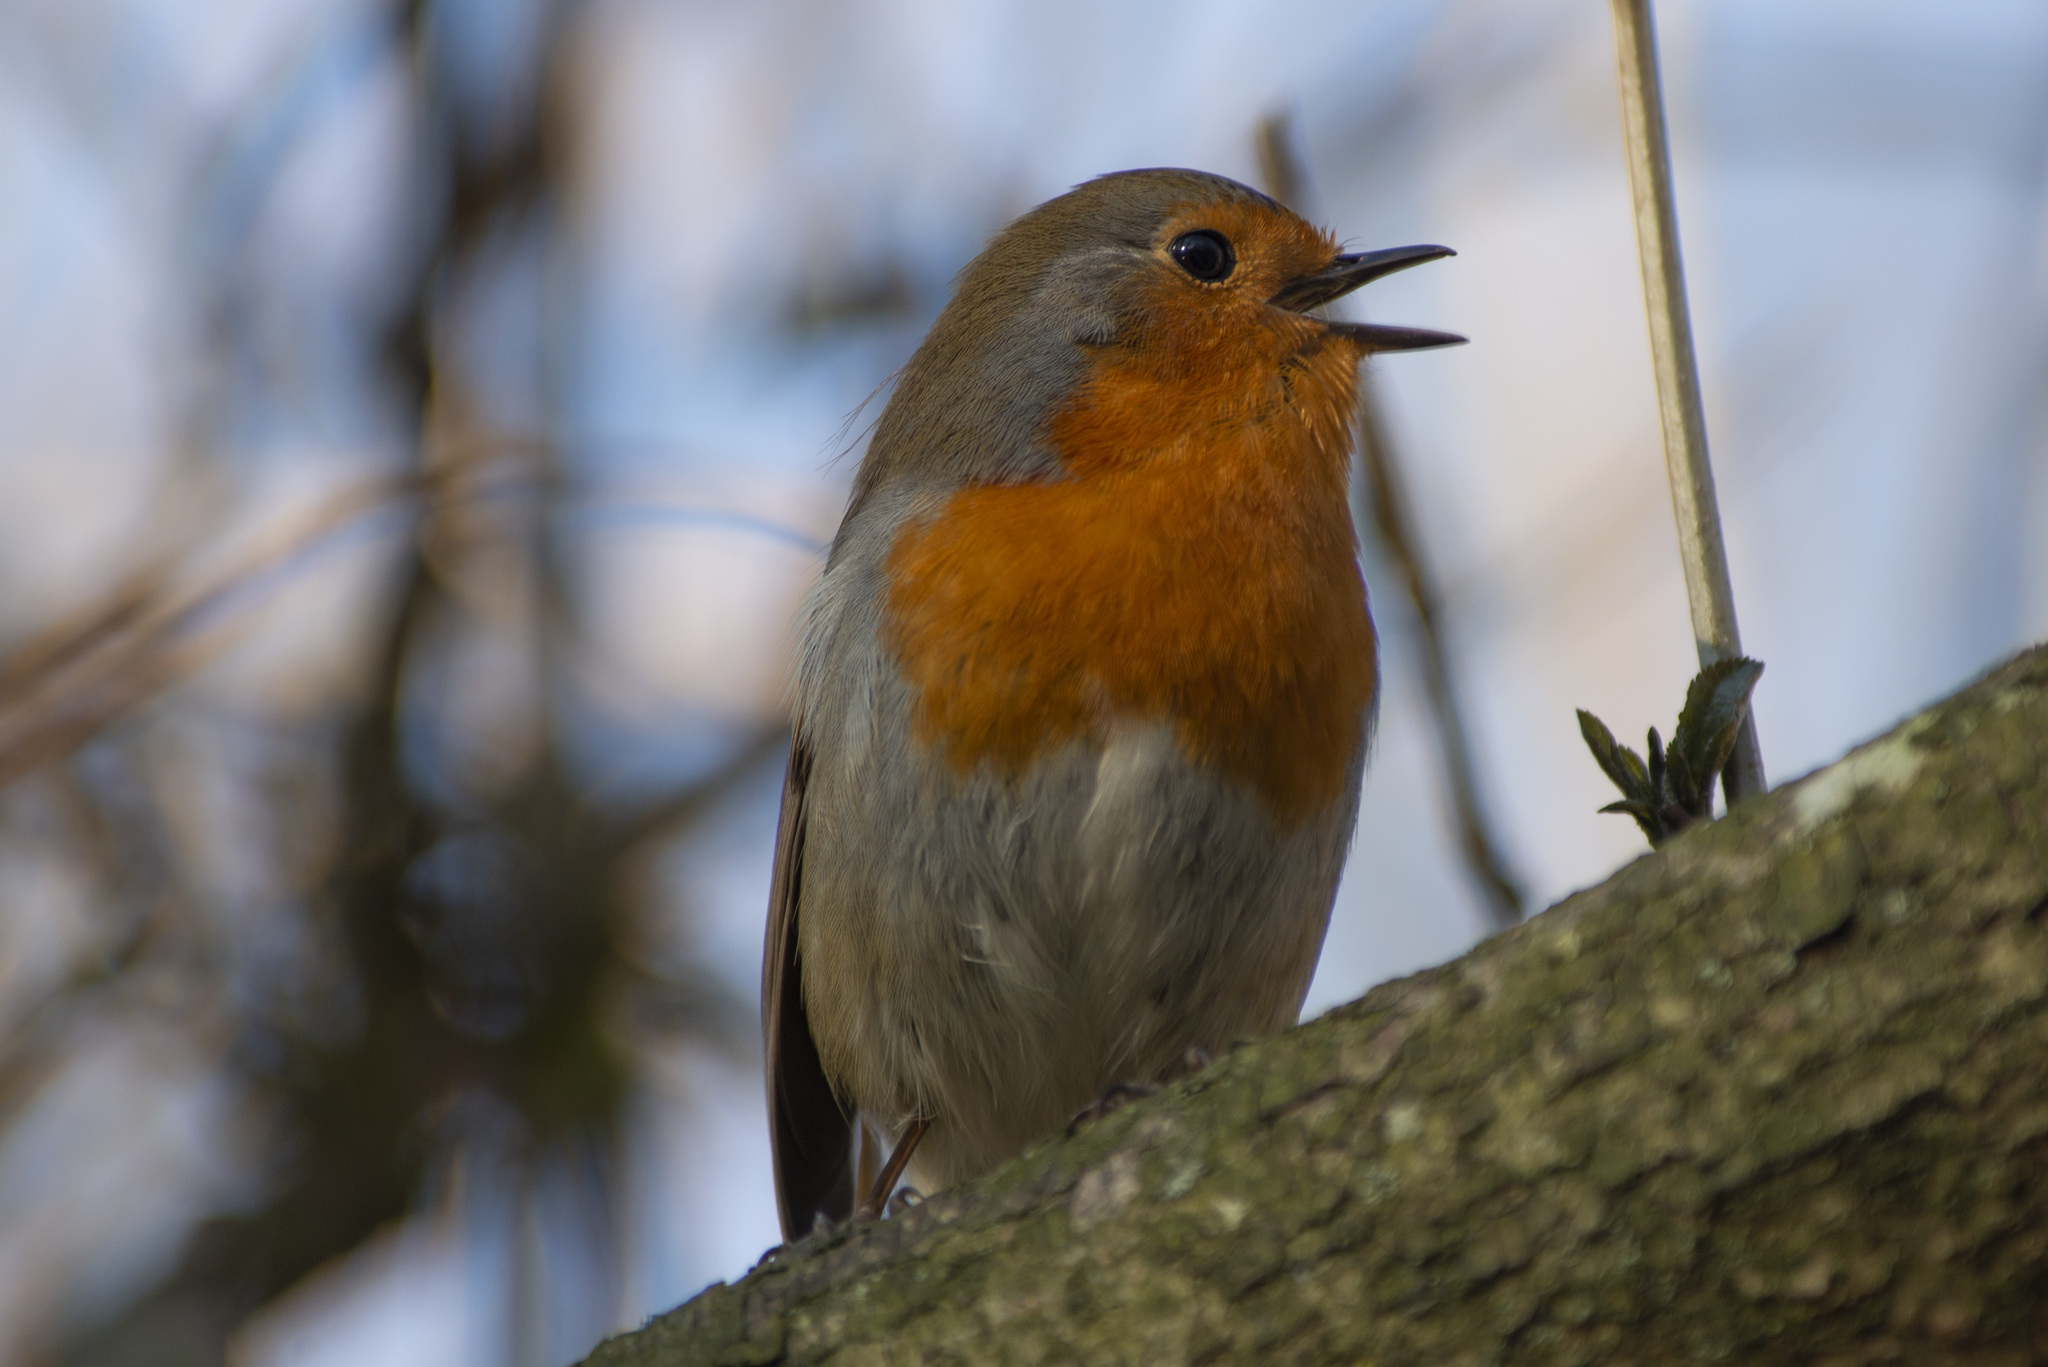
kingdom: Animalia
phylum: Chordata
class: Aves
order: Passeriformes
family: Muscicapidae
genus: Erithacus
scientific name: Erithacus rubecula
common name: European robin
